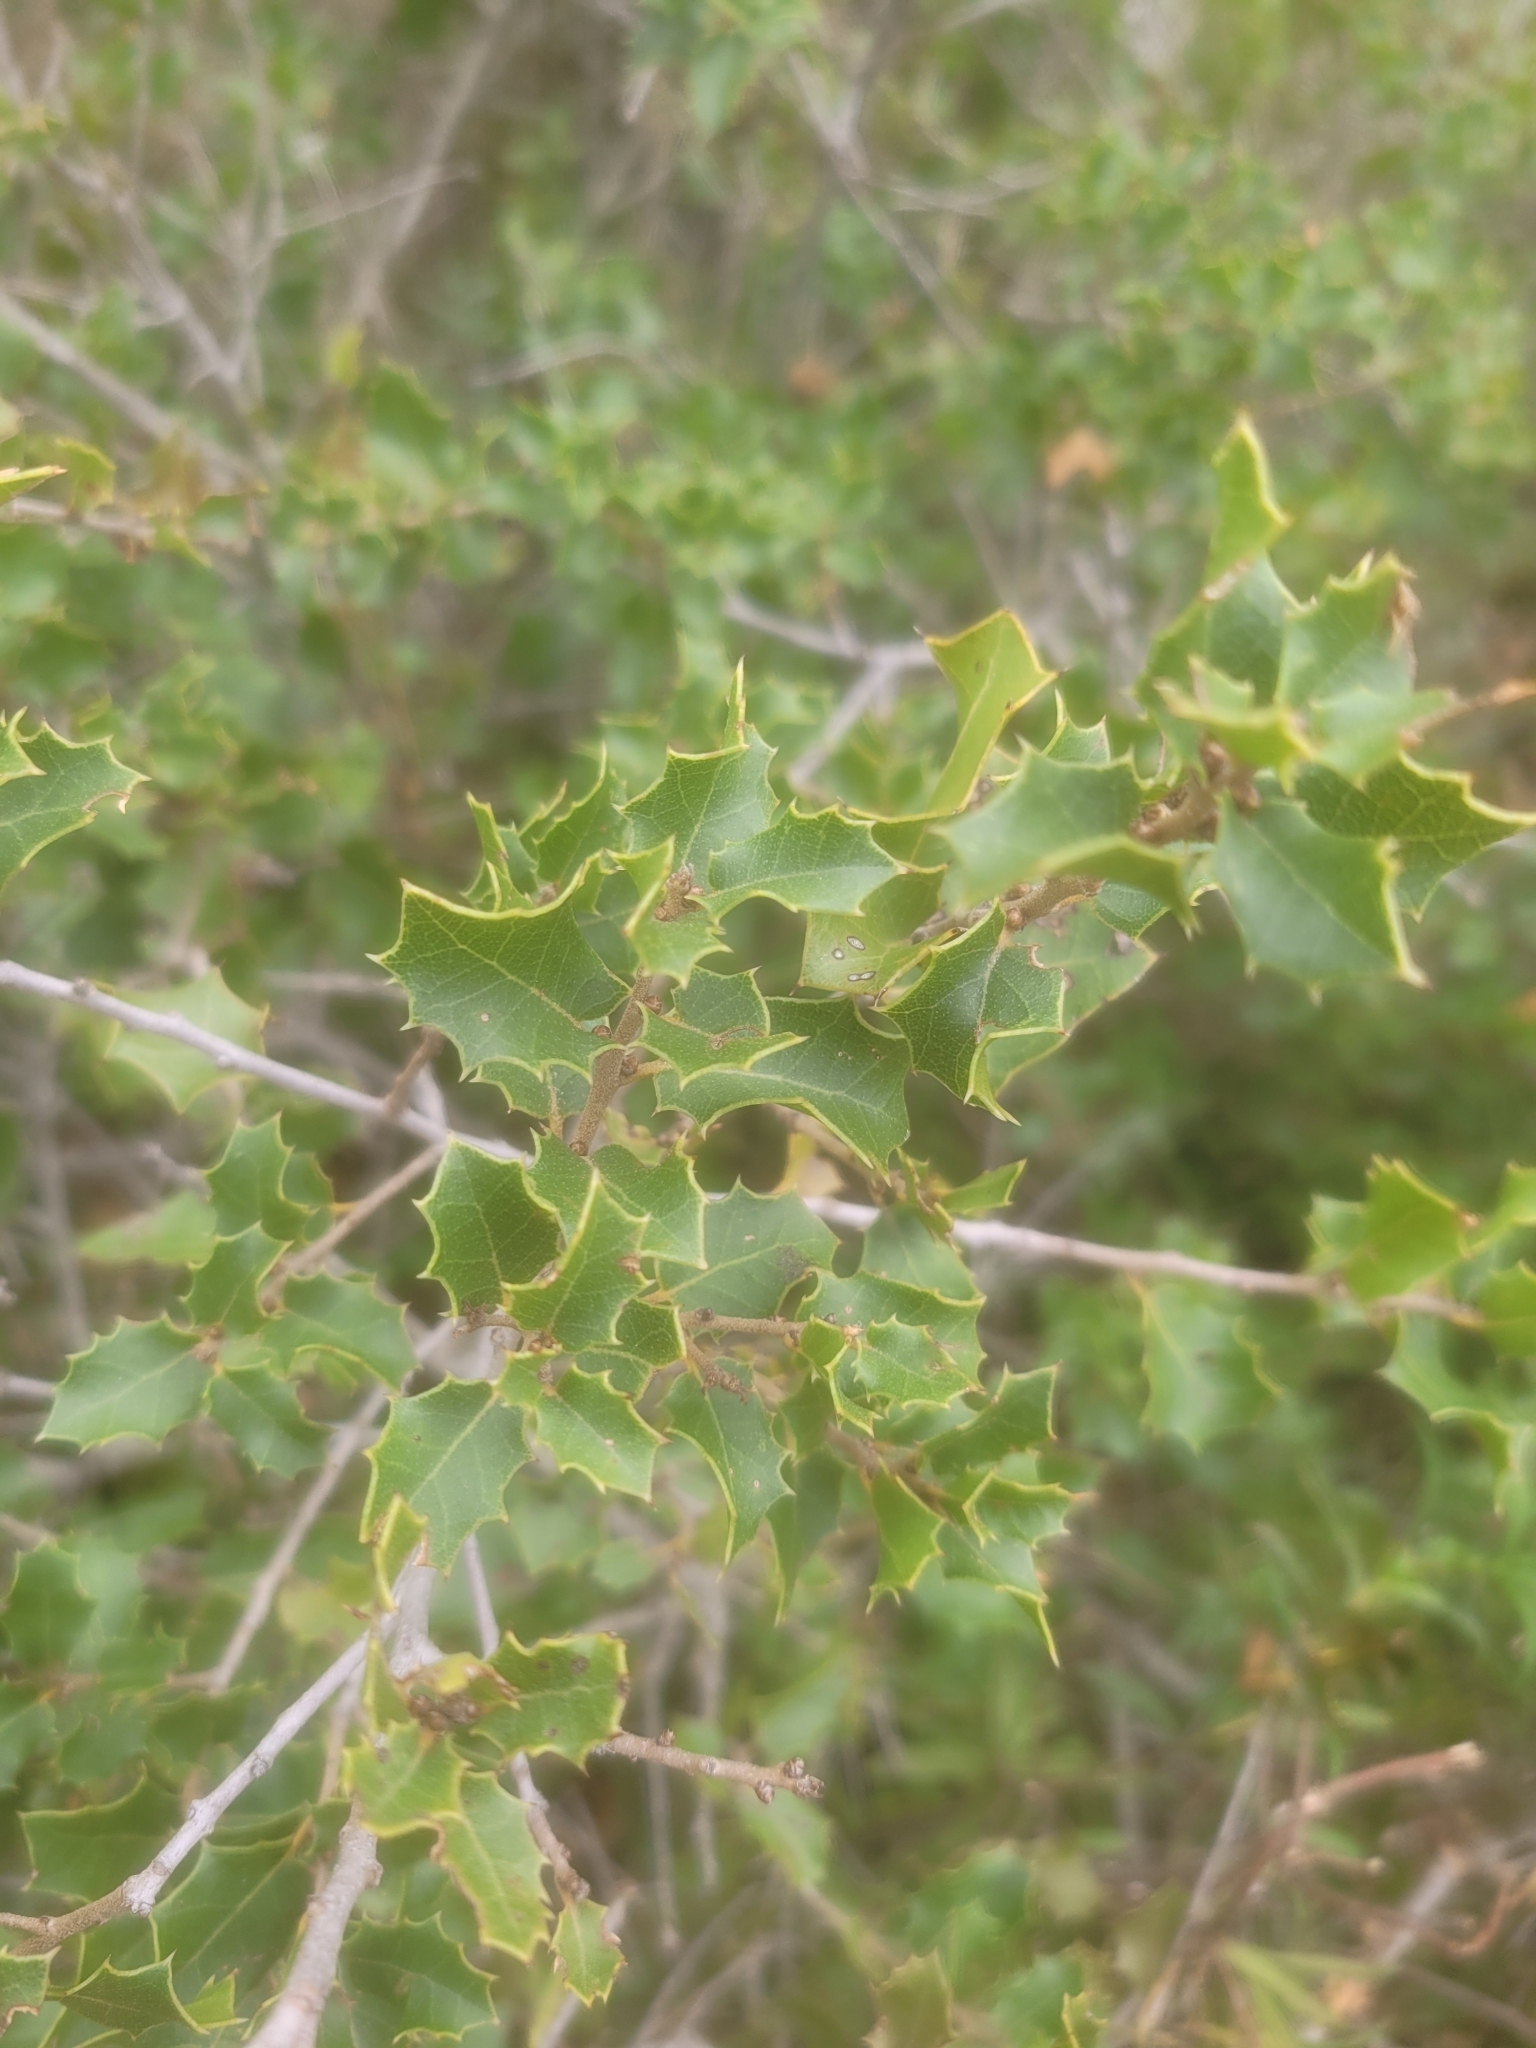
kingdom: Plantae
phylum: Tracheophyta
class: Magnoliopsida
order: Fagales
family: Fagaceae
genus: Quercus
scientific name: Quercus coccifera
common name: Kermes oak
